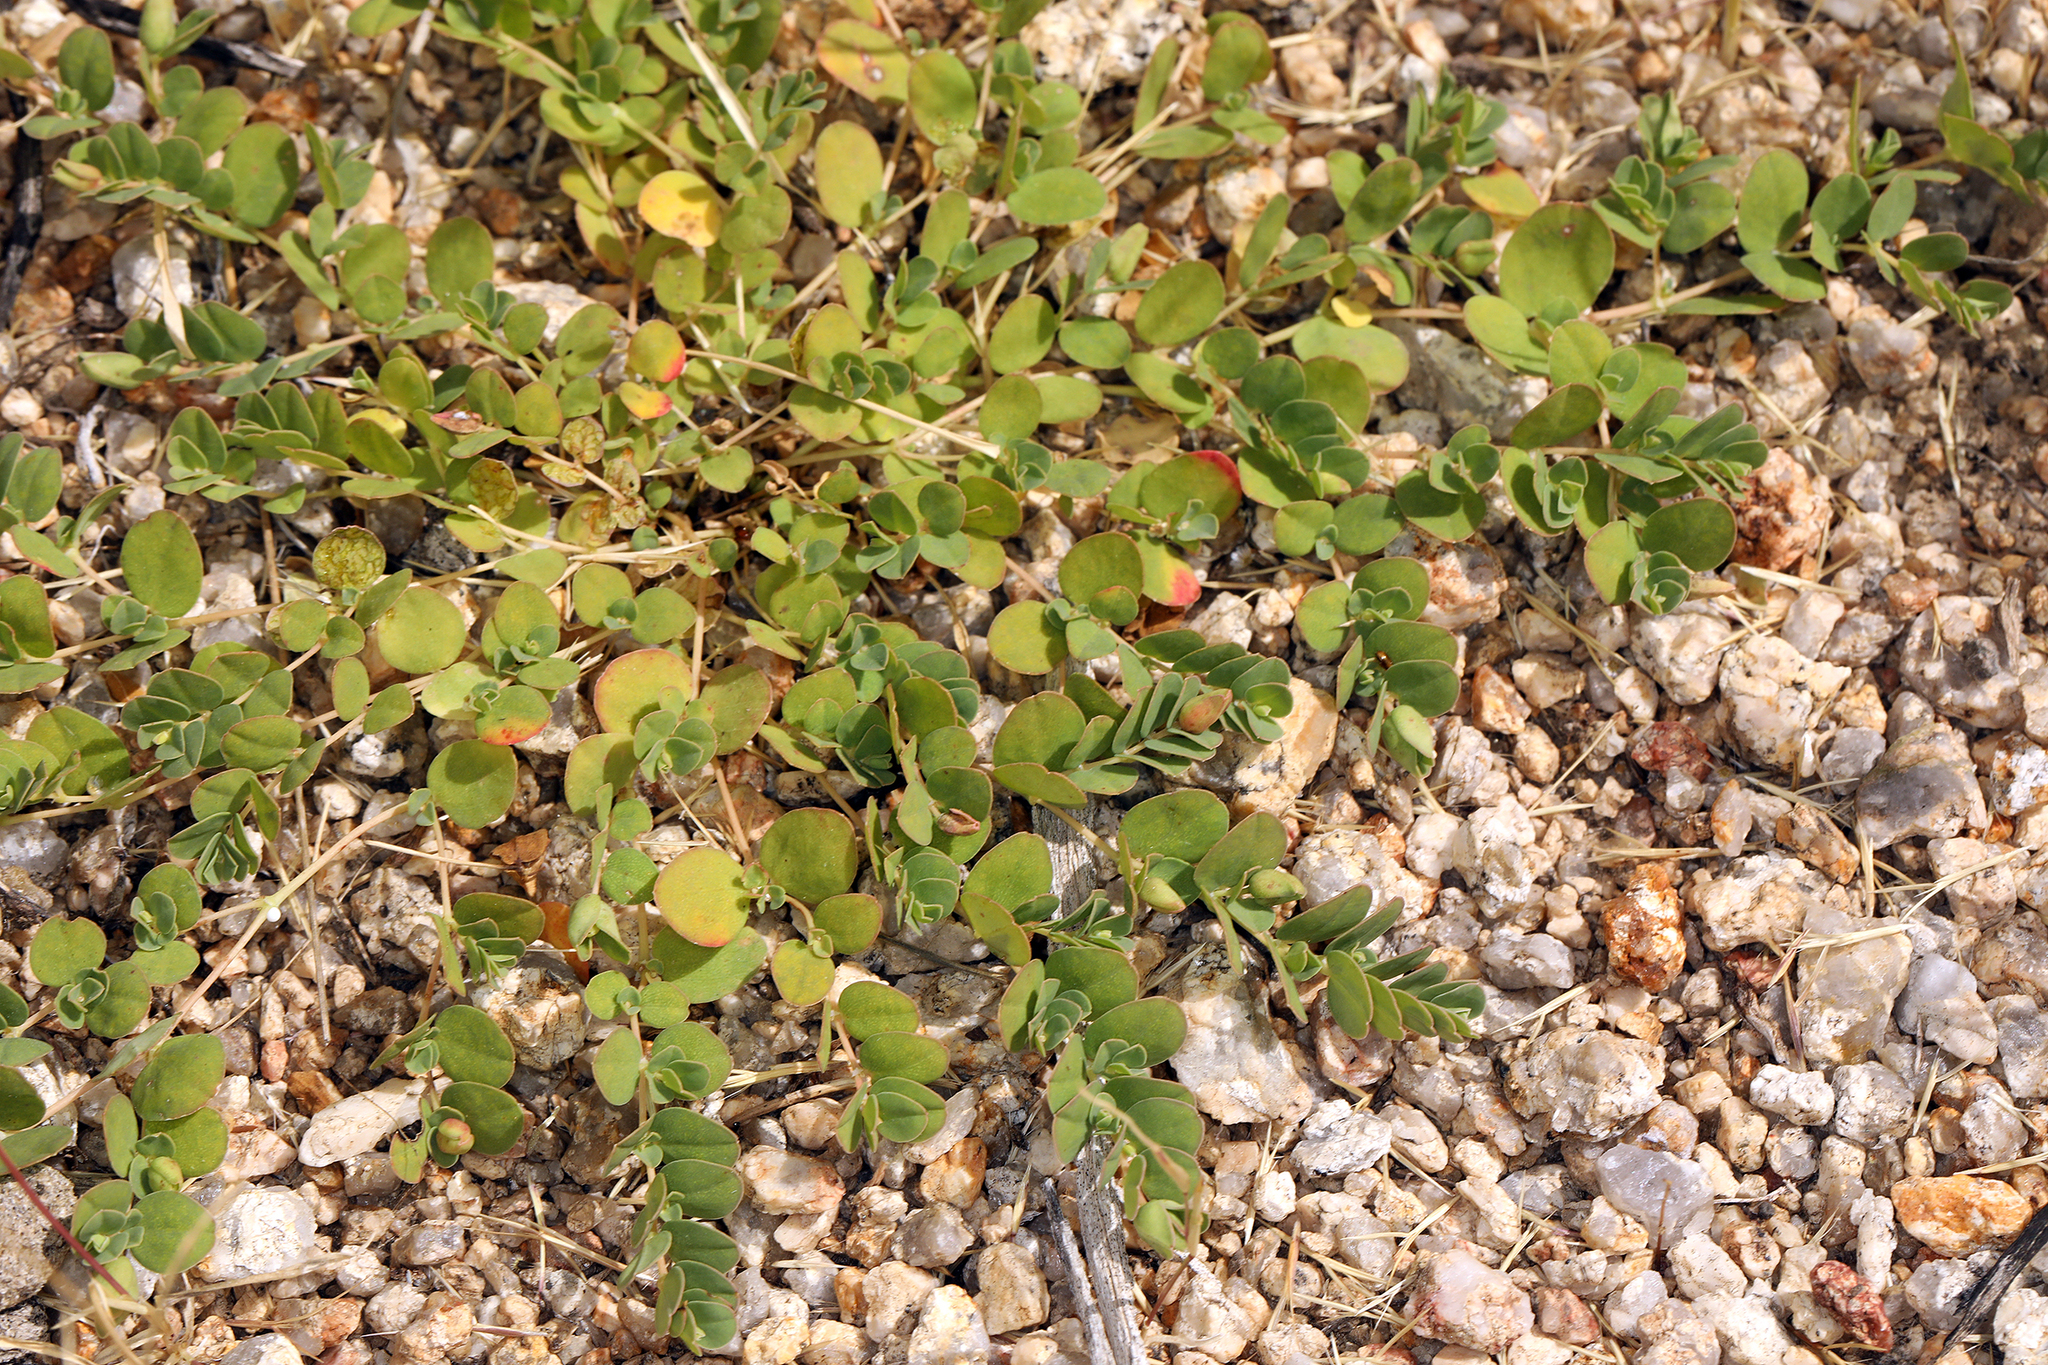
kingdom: Plantae
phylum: Tracheophyta
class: Magnoliopsida
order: Malpighiales
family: Euphorbiaceae
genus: Euphorbia
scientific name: Euphorbia albomarginata
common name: Whitemargin sandmat
